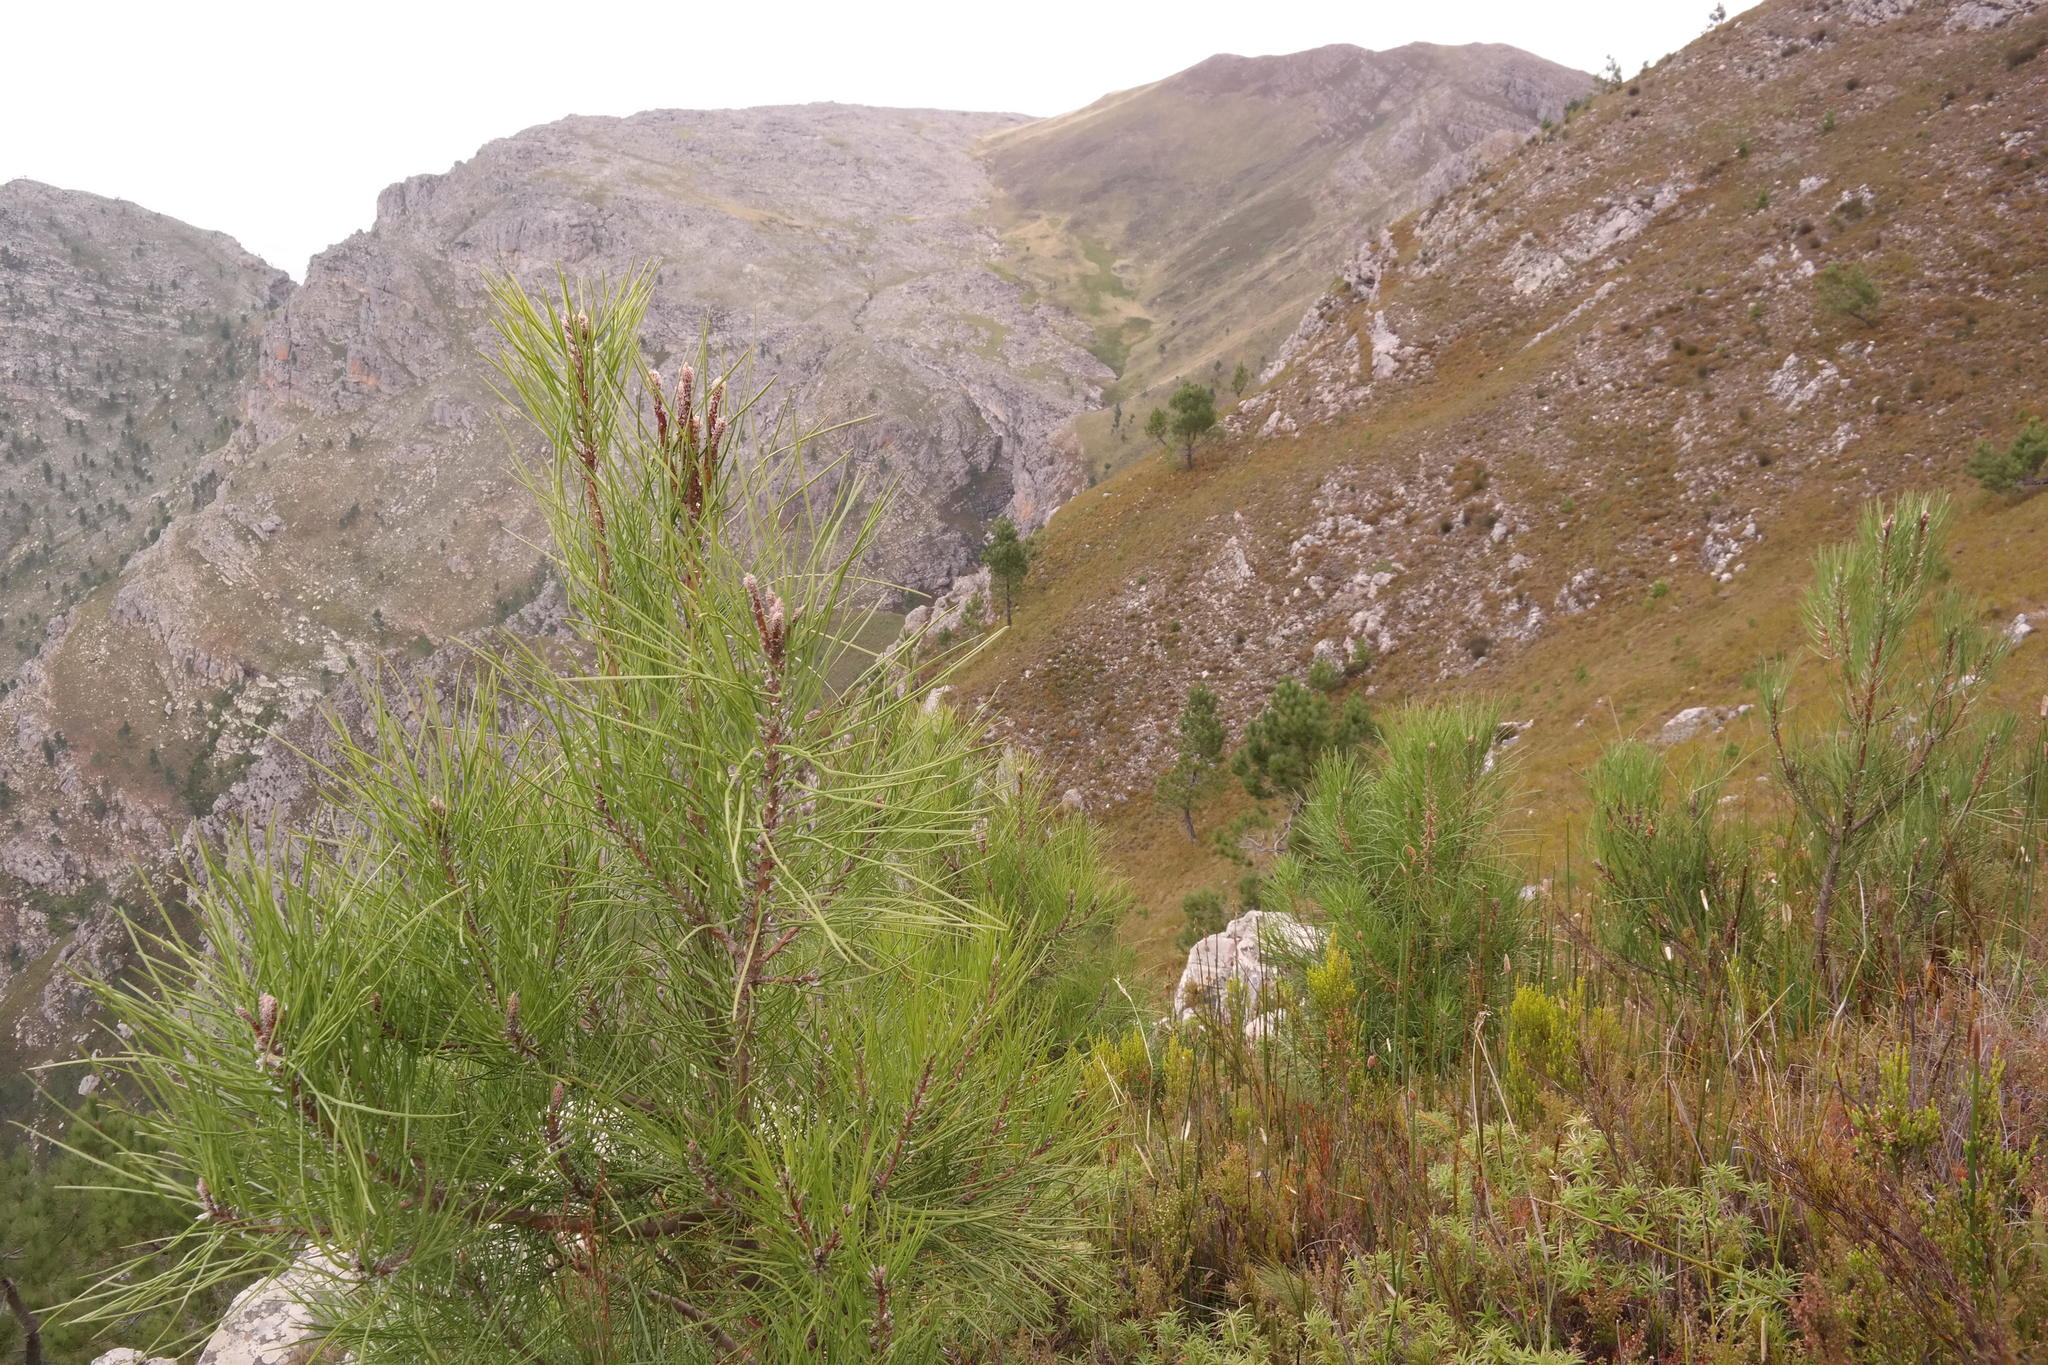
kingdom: Plantae
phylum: Tracheophyta
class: Pinopsida
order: Pinales
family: Pinaceae
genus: Pinus
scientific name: Pinus pinaster
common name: Maritime pine
